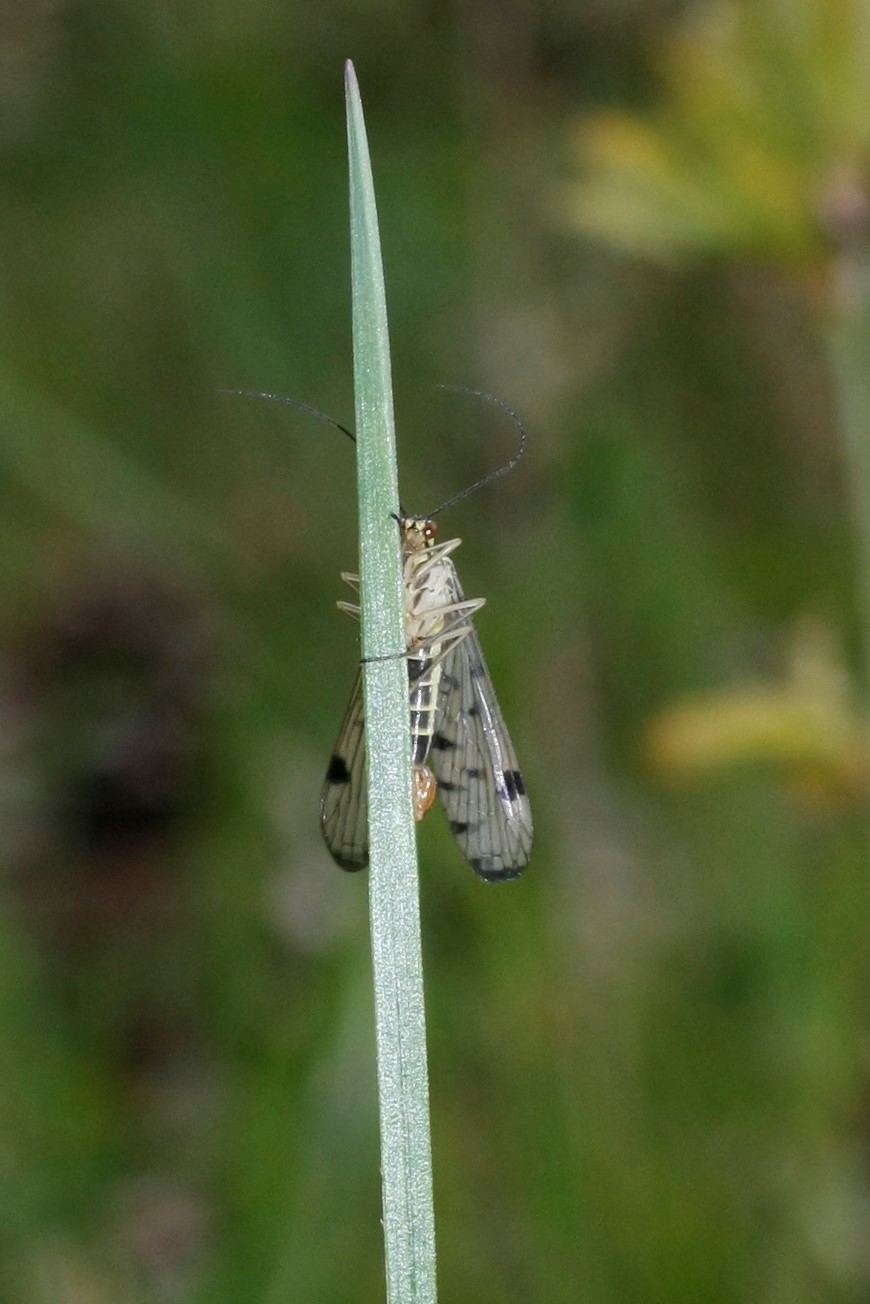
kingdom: Animalia
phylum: Arthropoda
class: Insecta
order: Mecoptera
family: Panorpidae
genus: Panorpa
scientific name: Panorpa germanica
